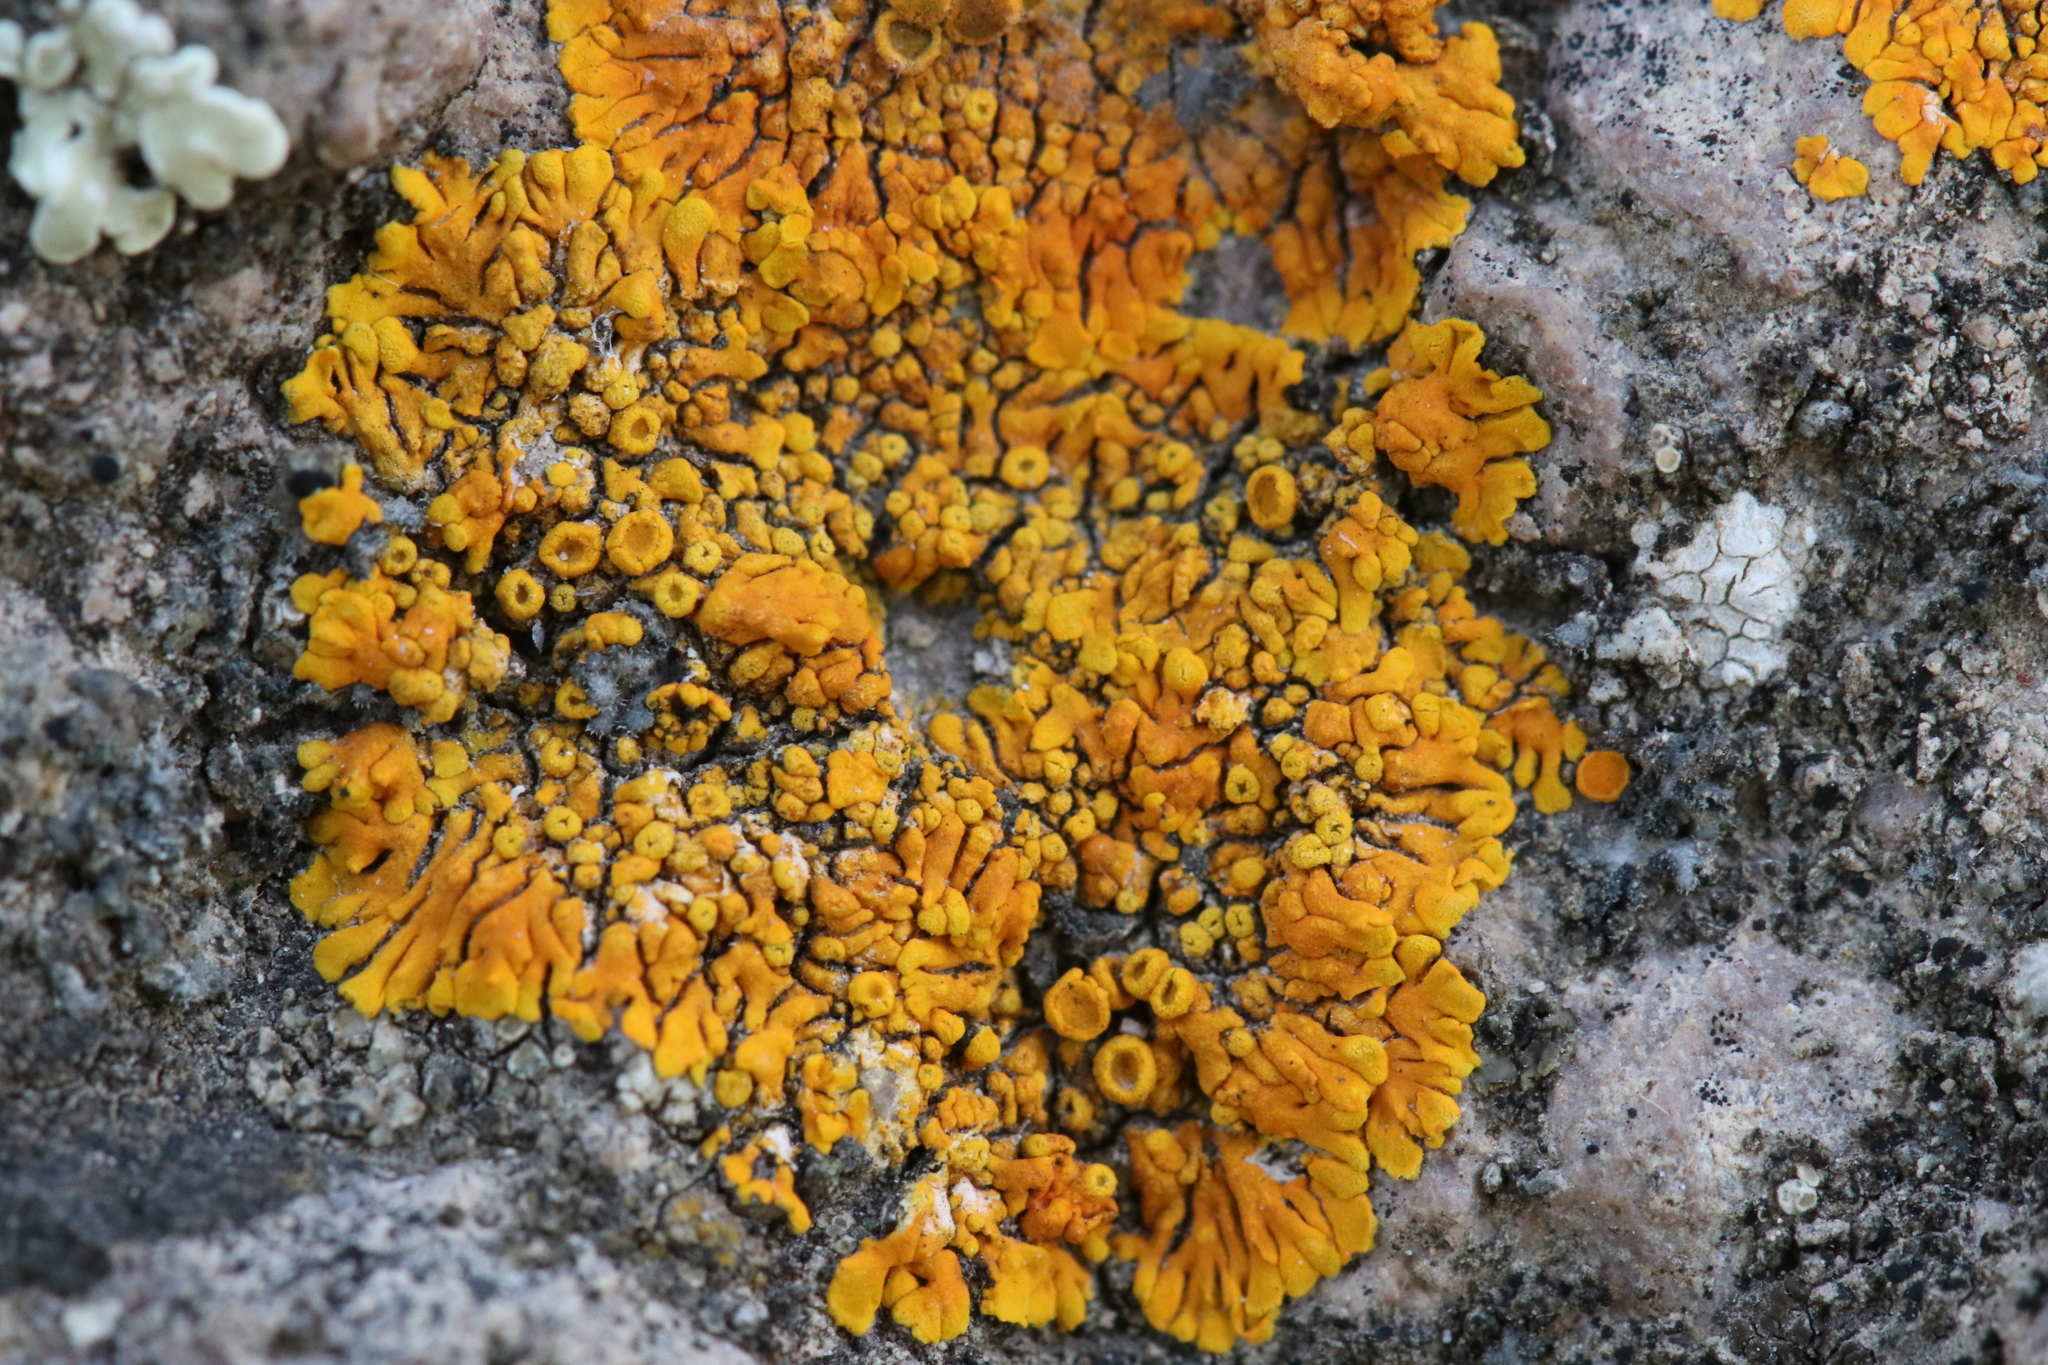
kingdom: Fungi
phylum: Ascomycota
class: Lecanoromycetes
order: Teloschistales
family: Teloschistaceae
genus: Igneoplaca
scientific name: Igneoplaca ignea
